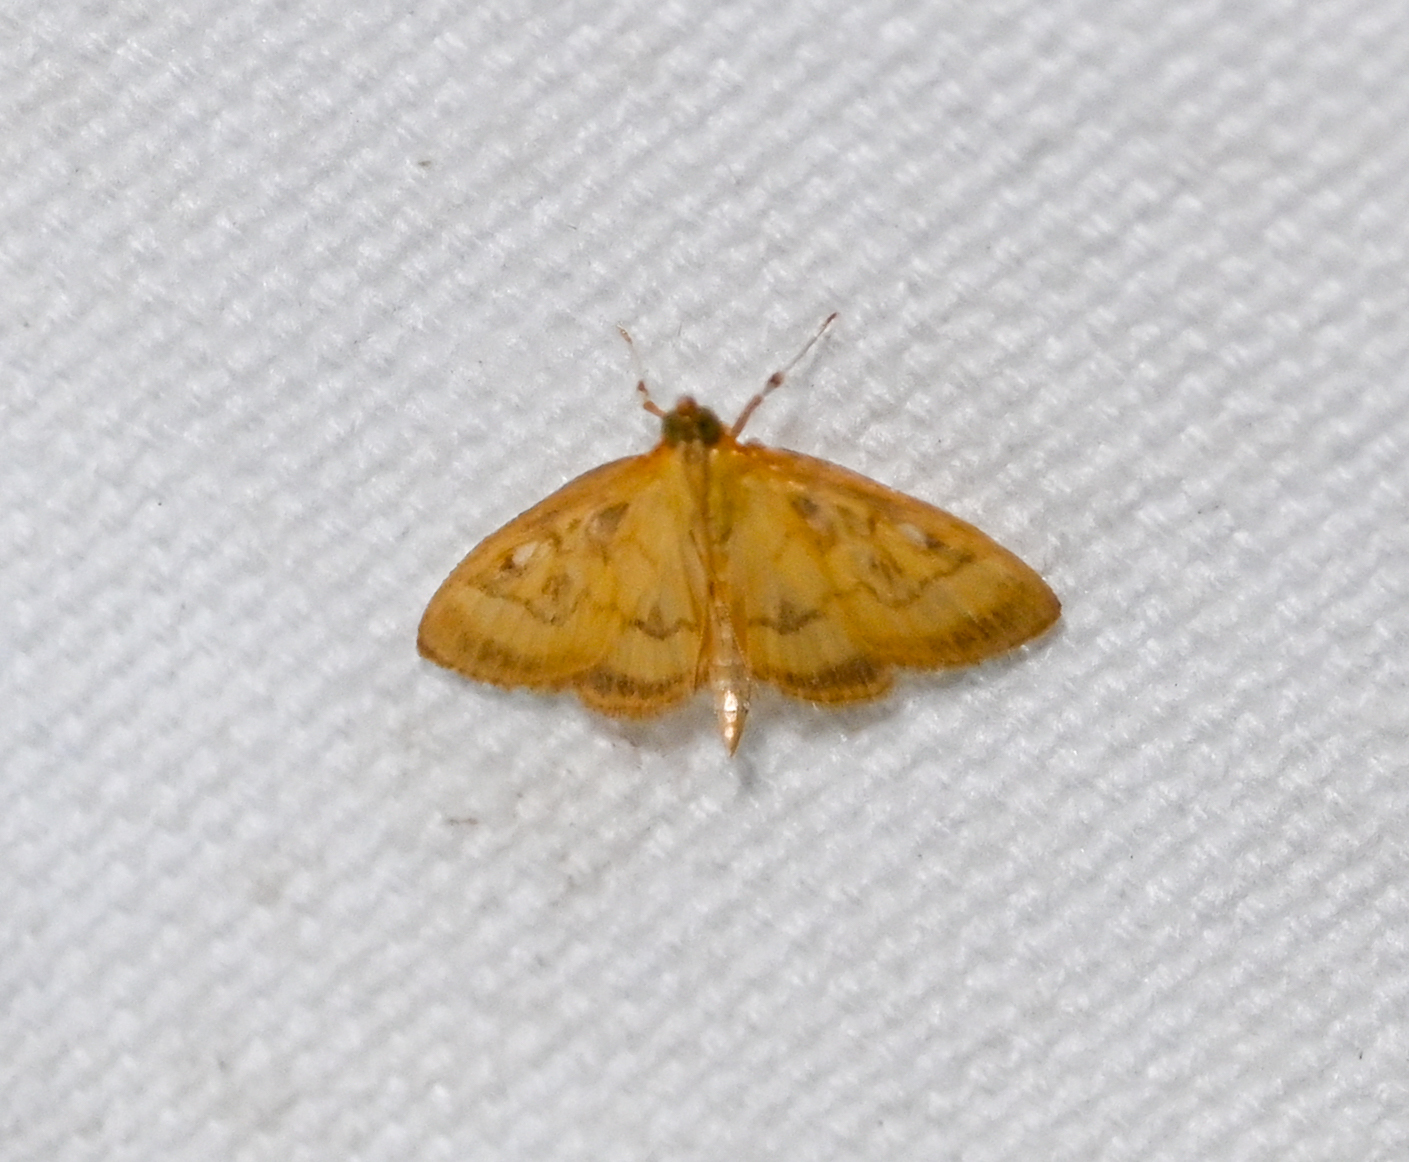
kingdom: Animalia
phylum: Arthropoda
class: Insecta
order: Lepidoptera
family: Crambidae
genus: Crocidophora
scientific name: Crocidophora tuberculalis
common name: Pale-winged crocidiphora moth
